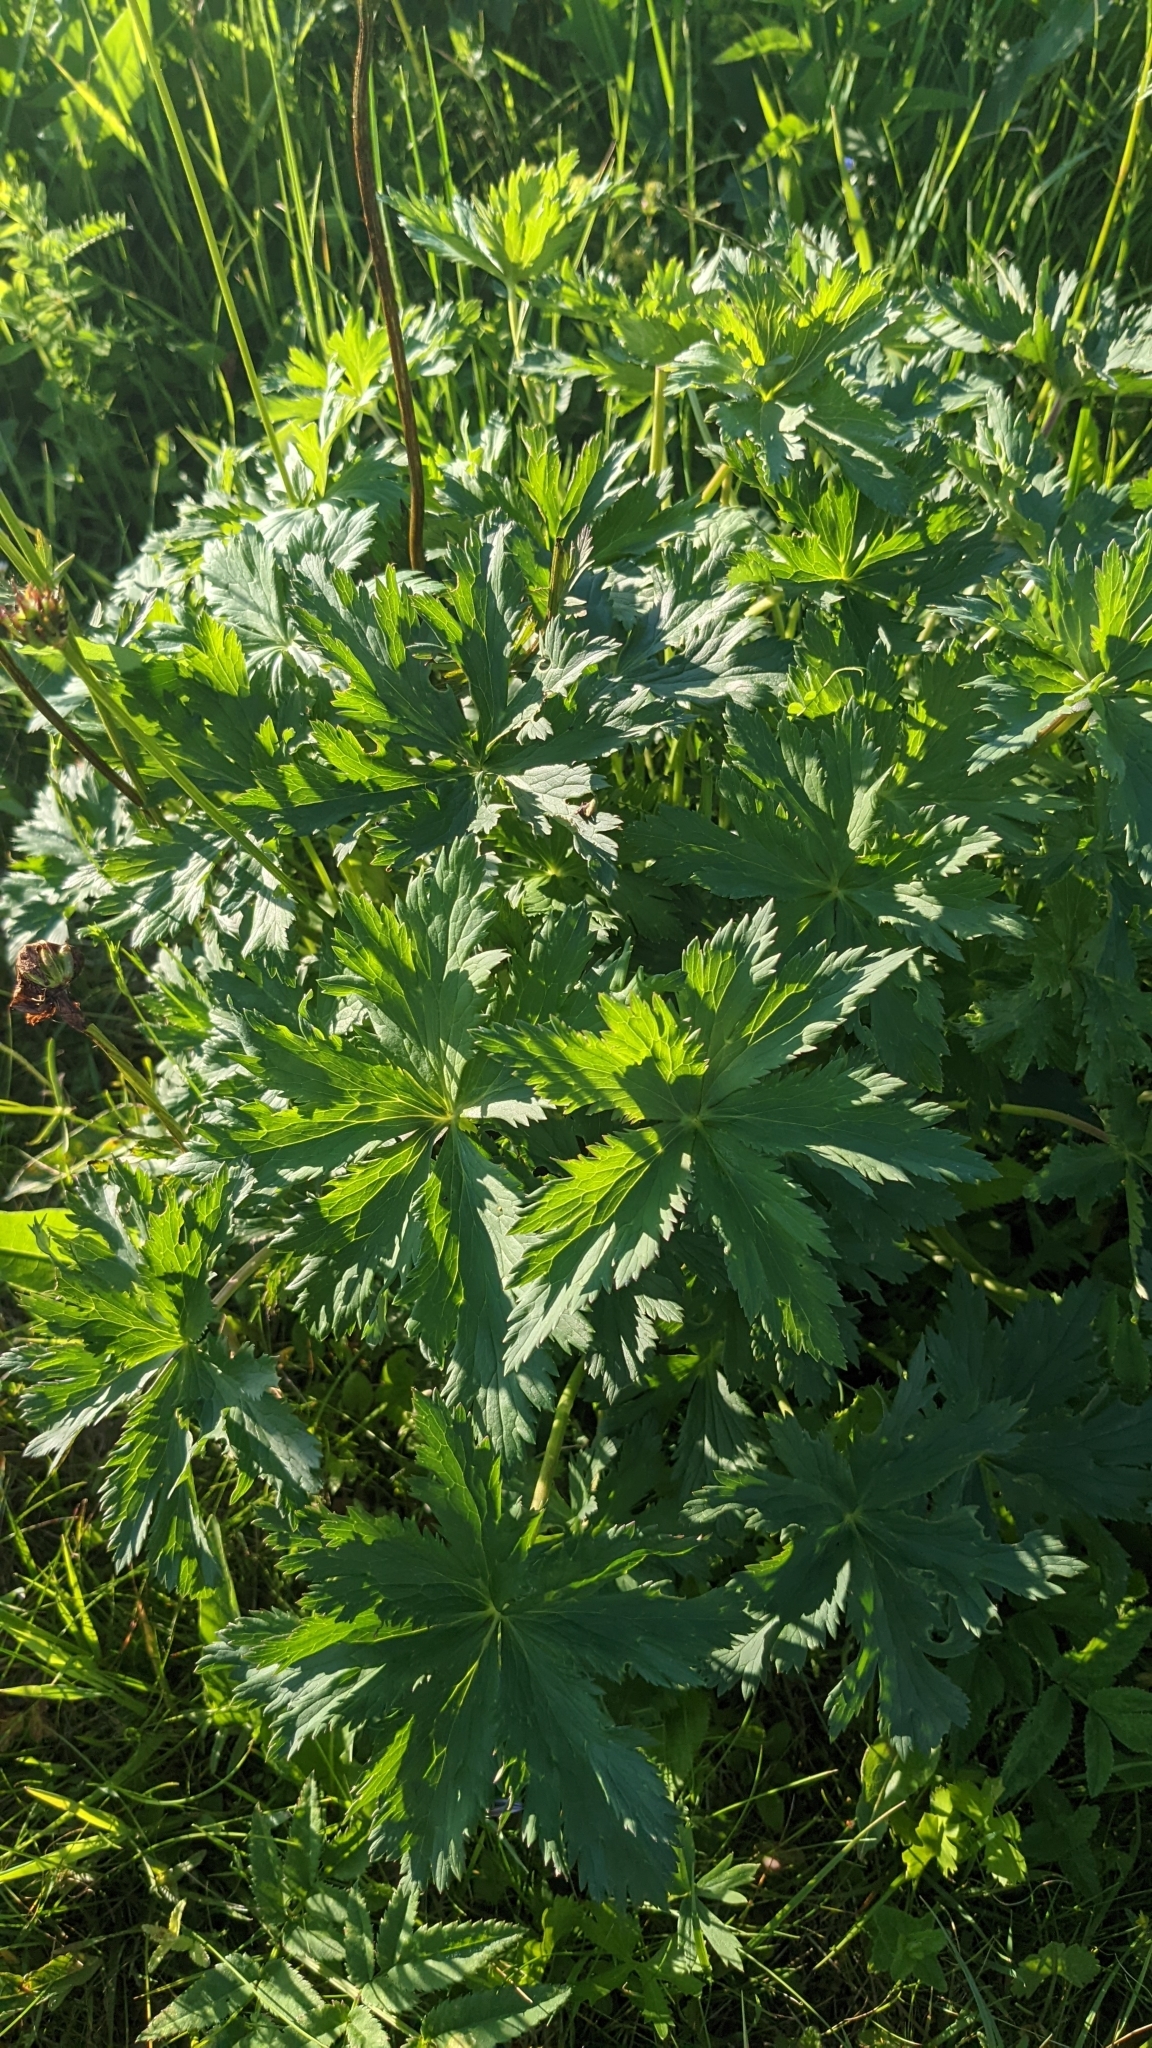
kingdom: Plantae
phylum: Tracheophyta
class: Magnoliopsida
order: Ranunculales
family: Ranunculaceae
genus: Trollius
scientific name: Trollius europaeus
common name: European globeflower
